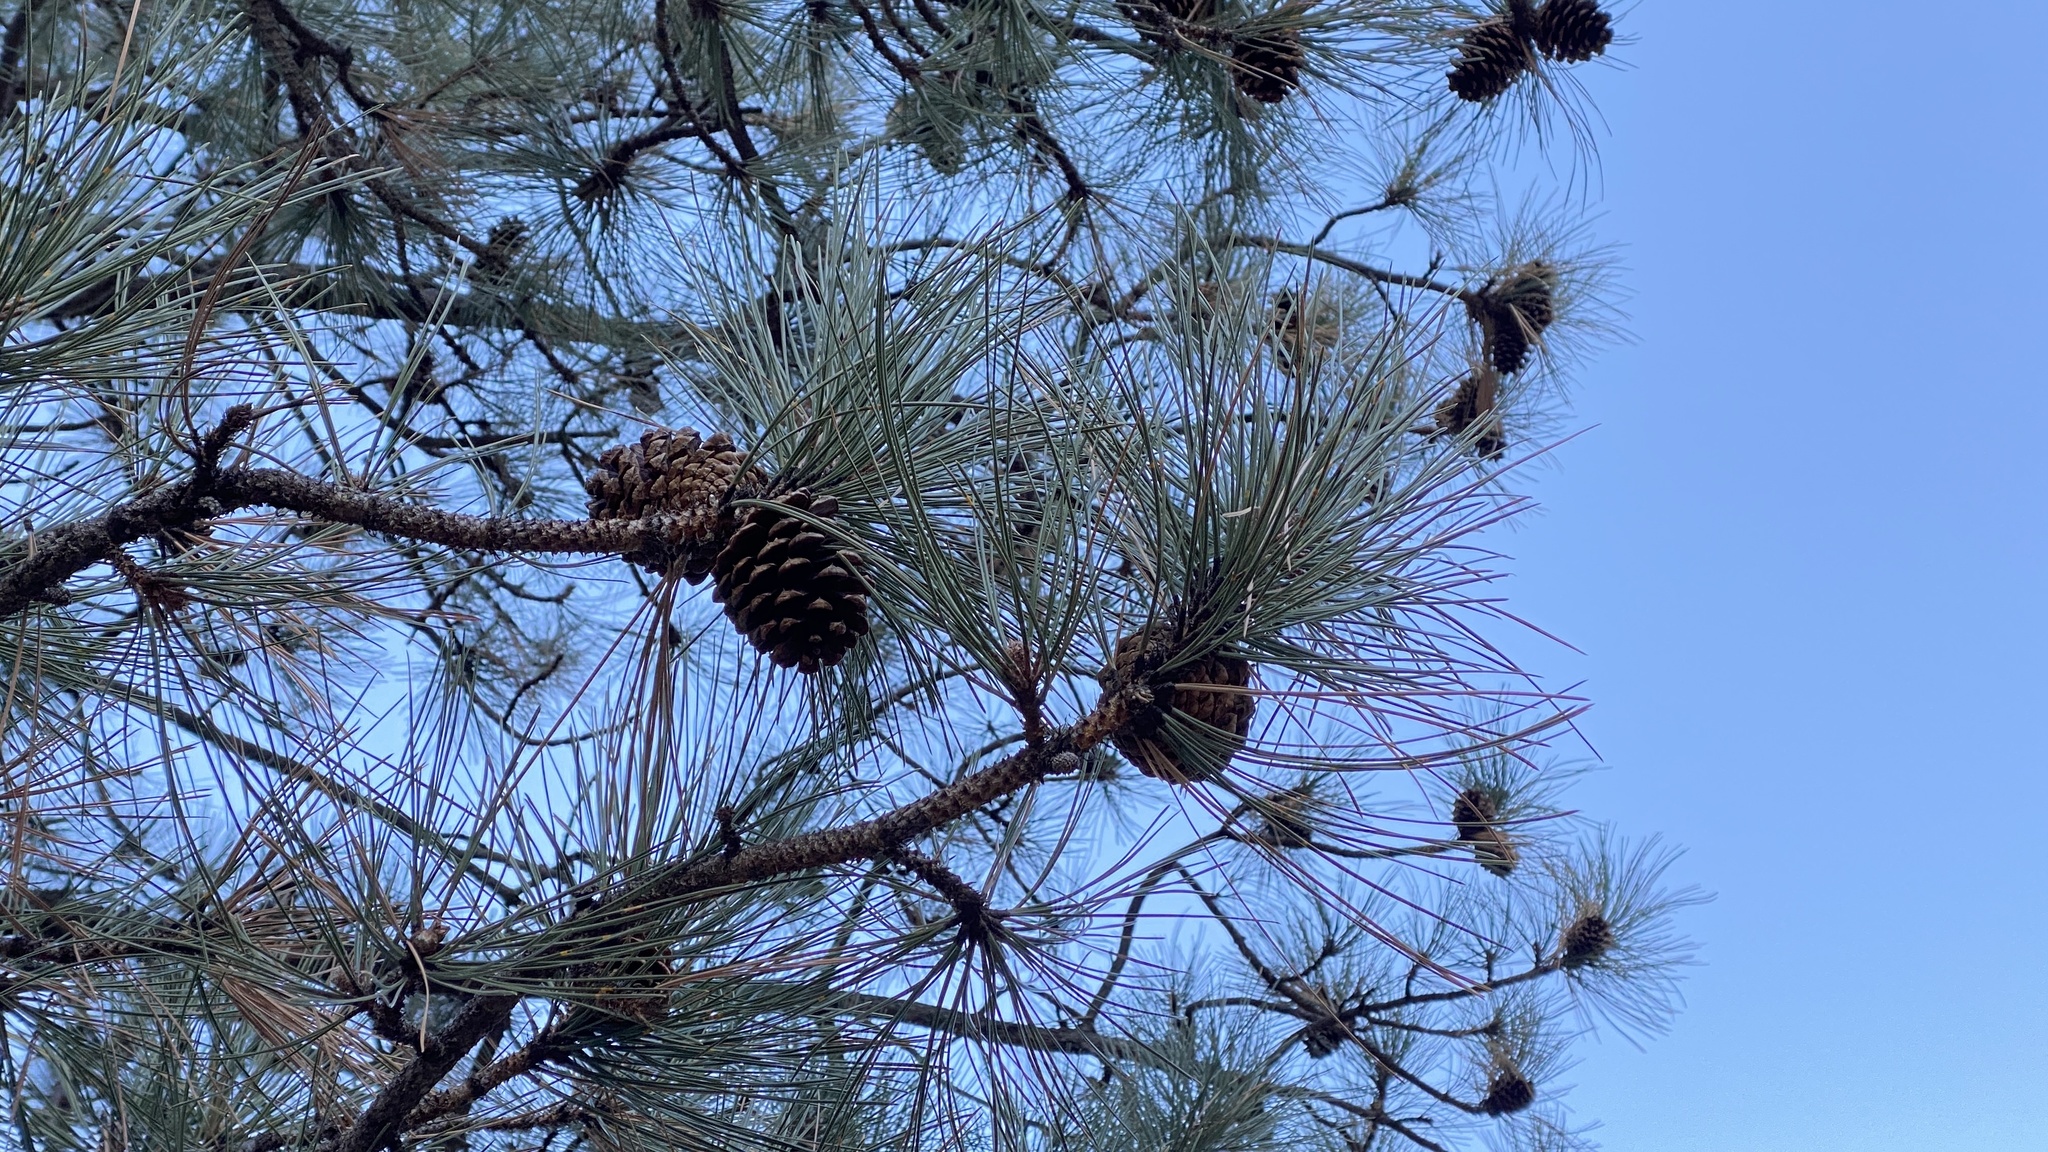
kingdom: Plantae
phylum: Tracheophyta
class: Pinopsida
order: Pinales
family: Pinaceae
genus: Pinus
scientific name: Pinus ponderosa
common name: Western yellow-pine
